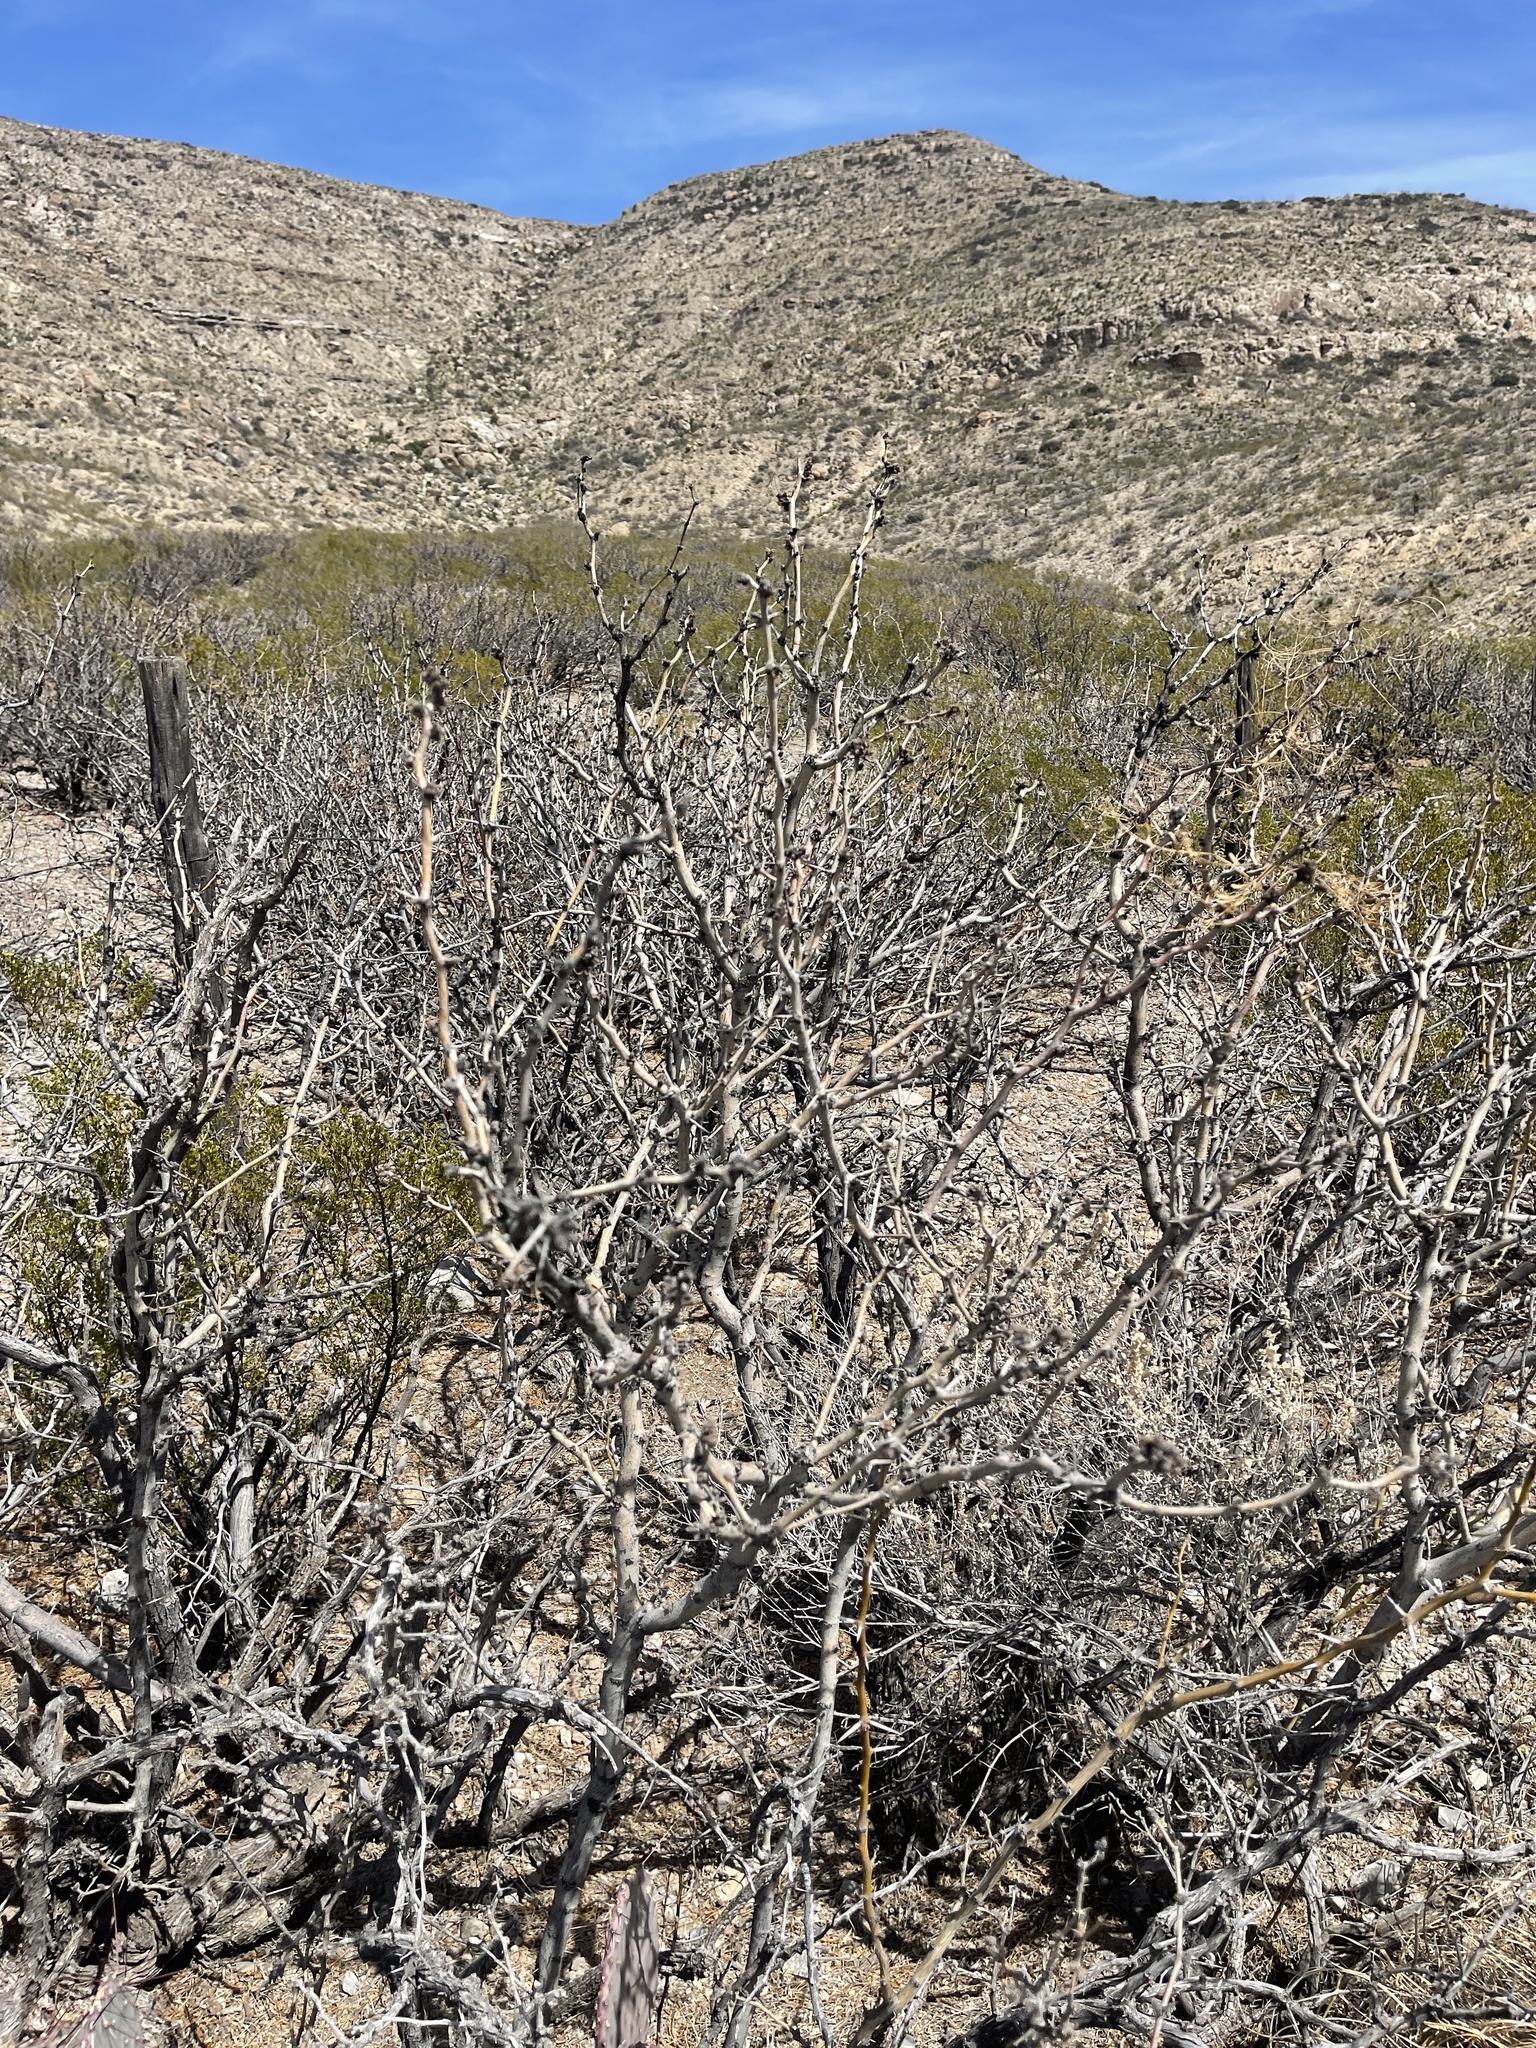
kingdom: Plantae
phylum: Tracheophyta
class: Magnoliopsida
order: Fabales
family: Fabaceae
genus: Prosopis
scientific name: Prosopis glandulosa
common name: Honey mesquite
